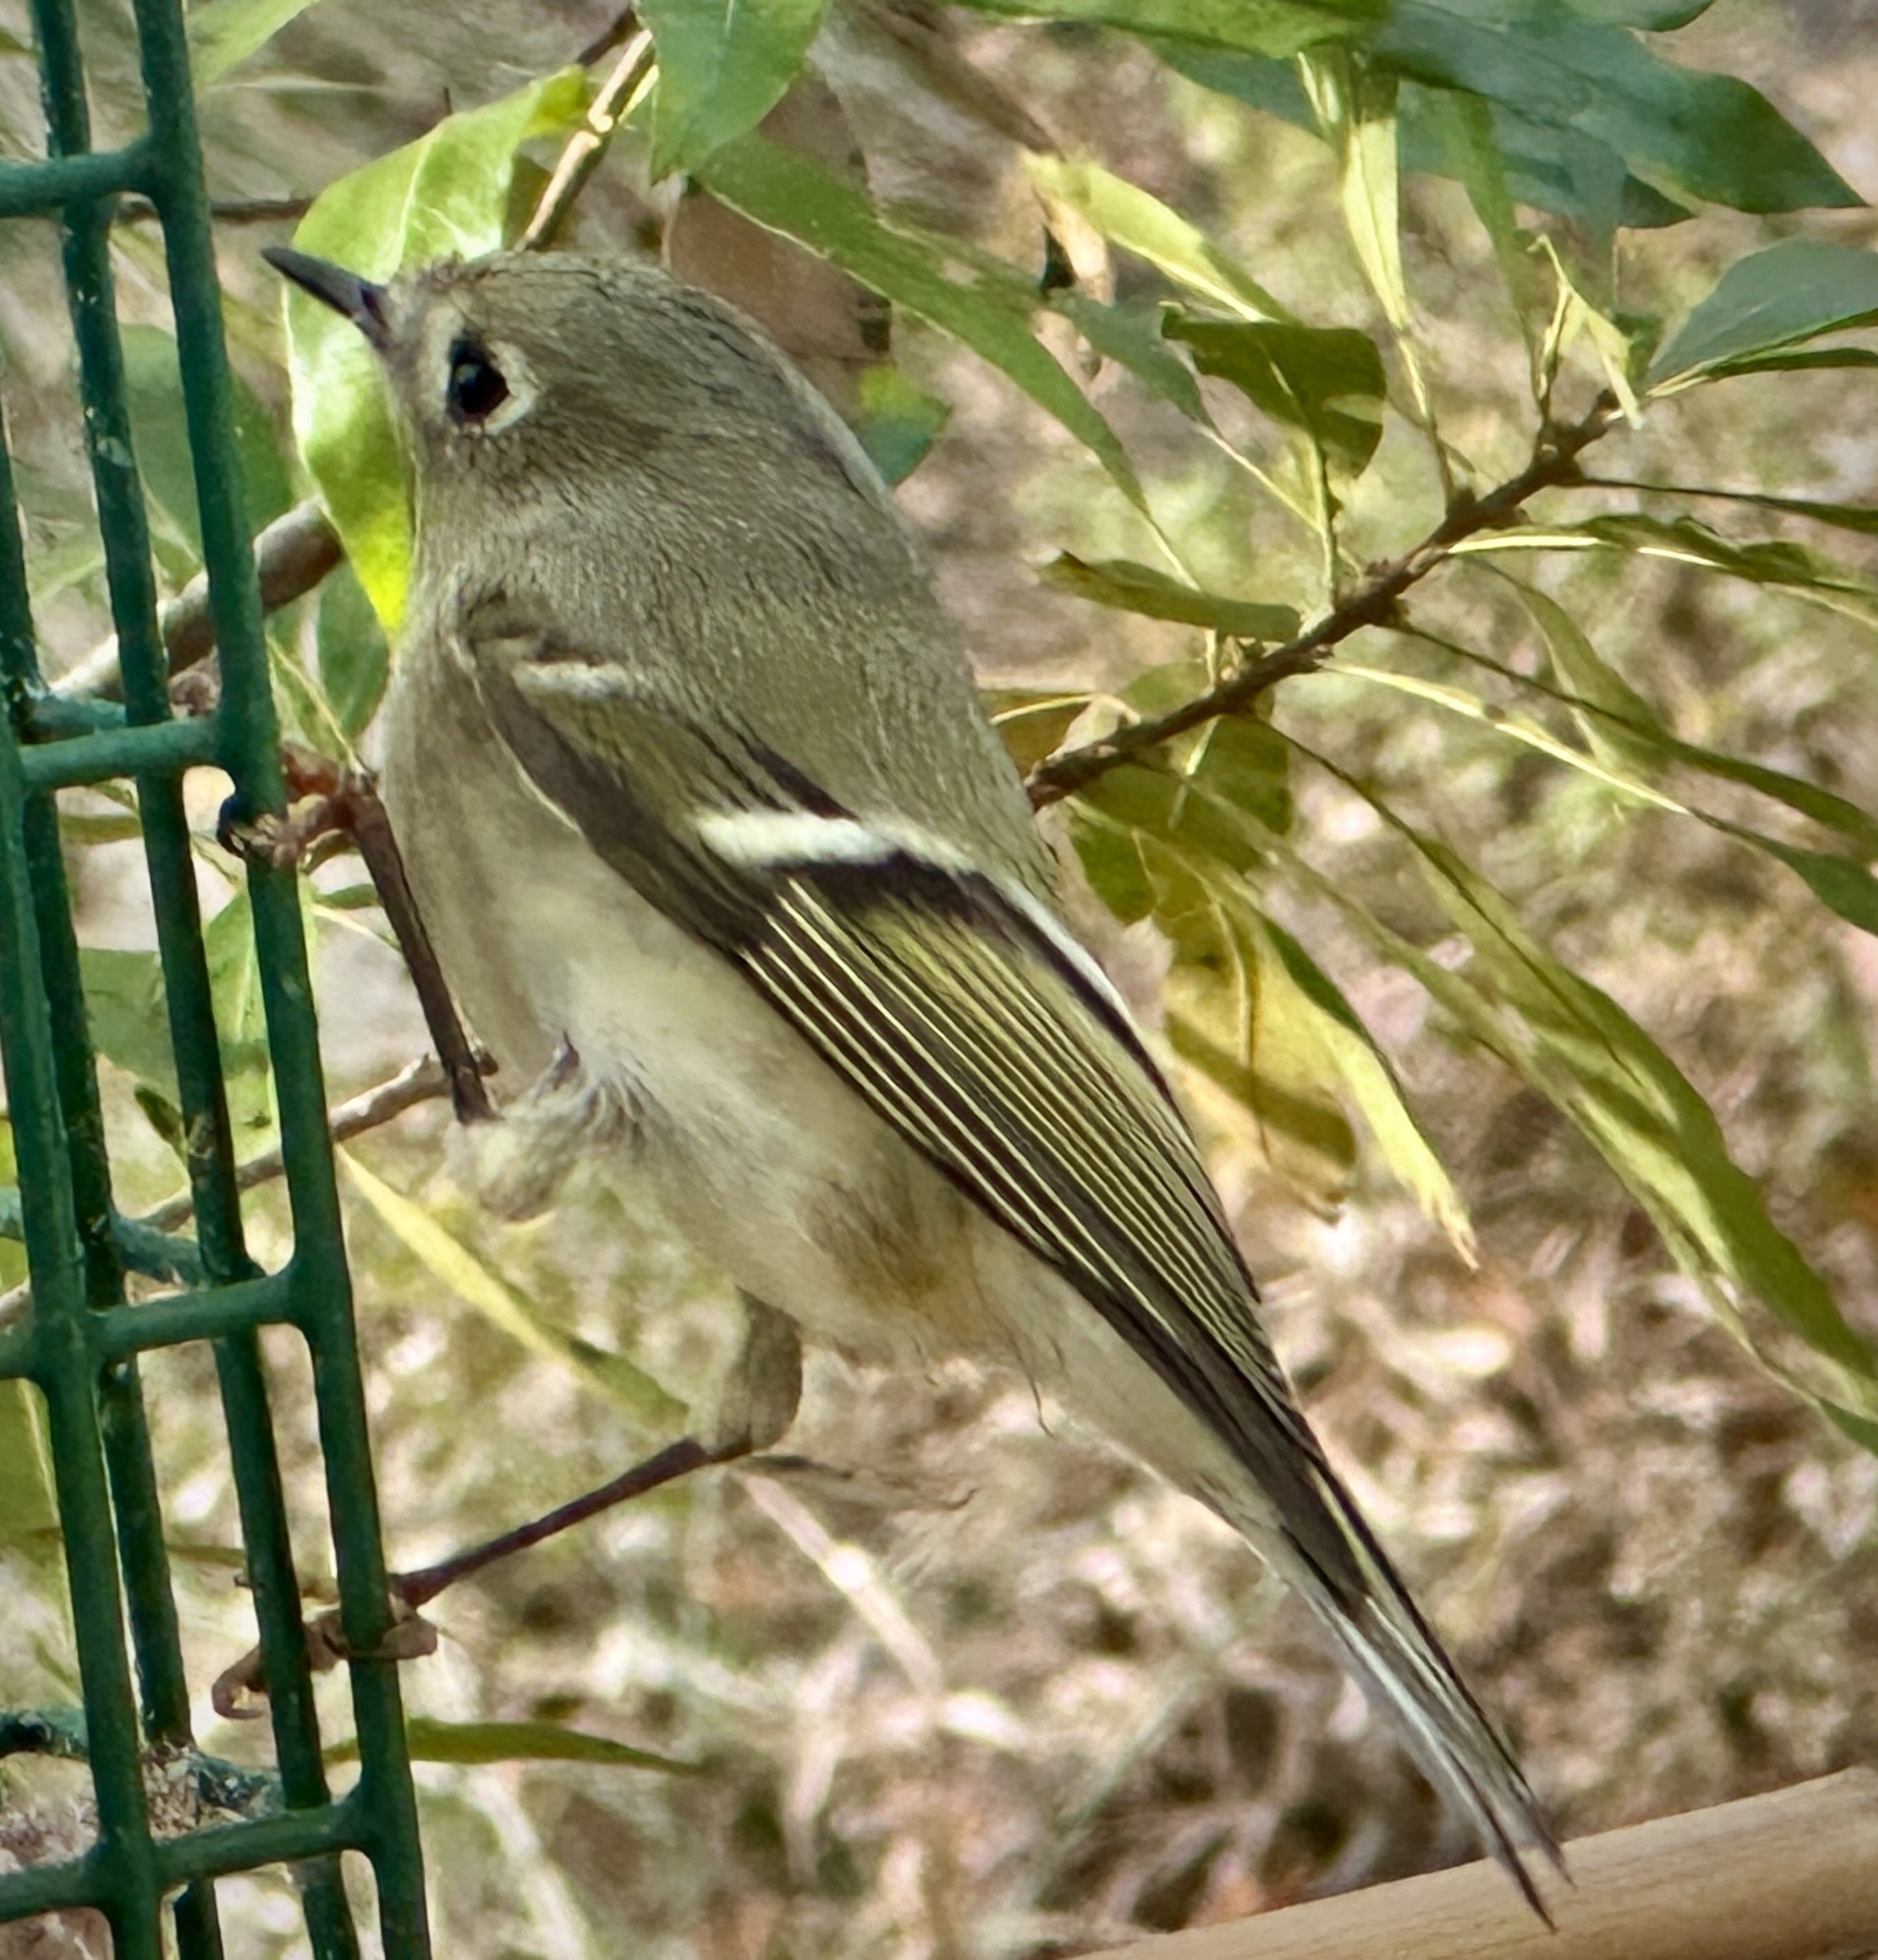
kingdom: Animalia
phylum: Chordata
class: Aves
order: Passeriformes
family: Regulidae
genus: Regulus
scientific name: Regulus calendula
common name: Ruby-crowned kinglet
